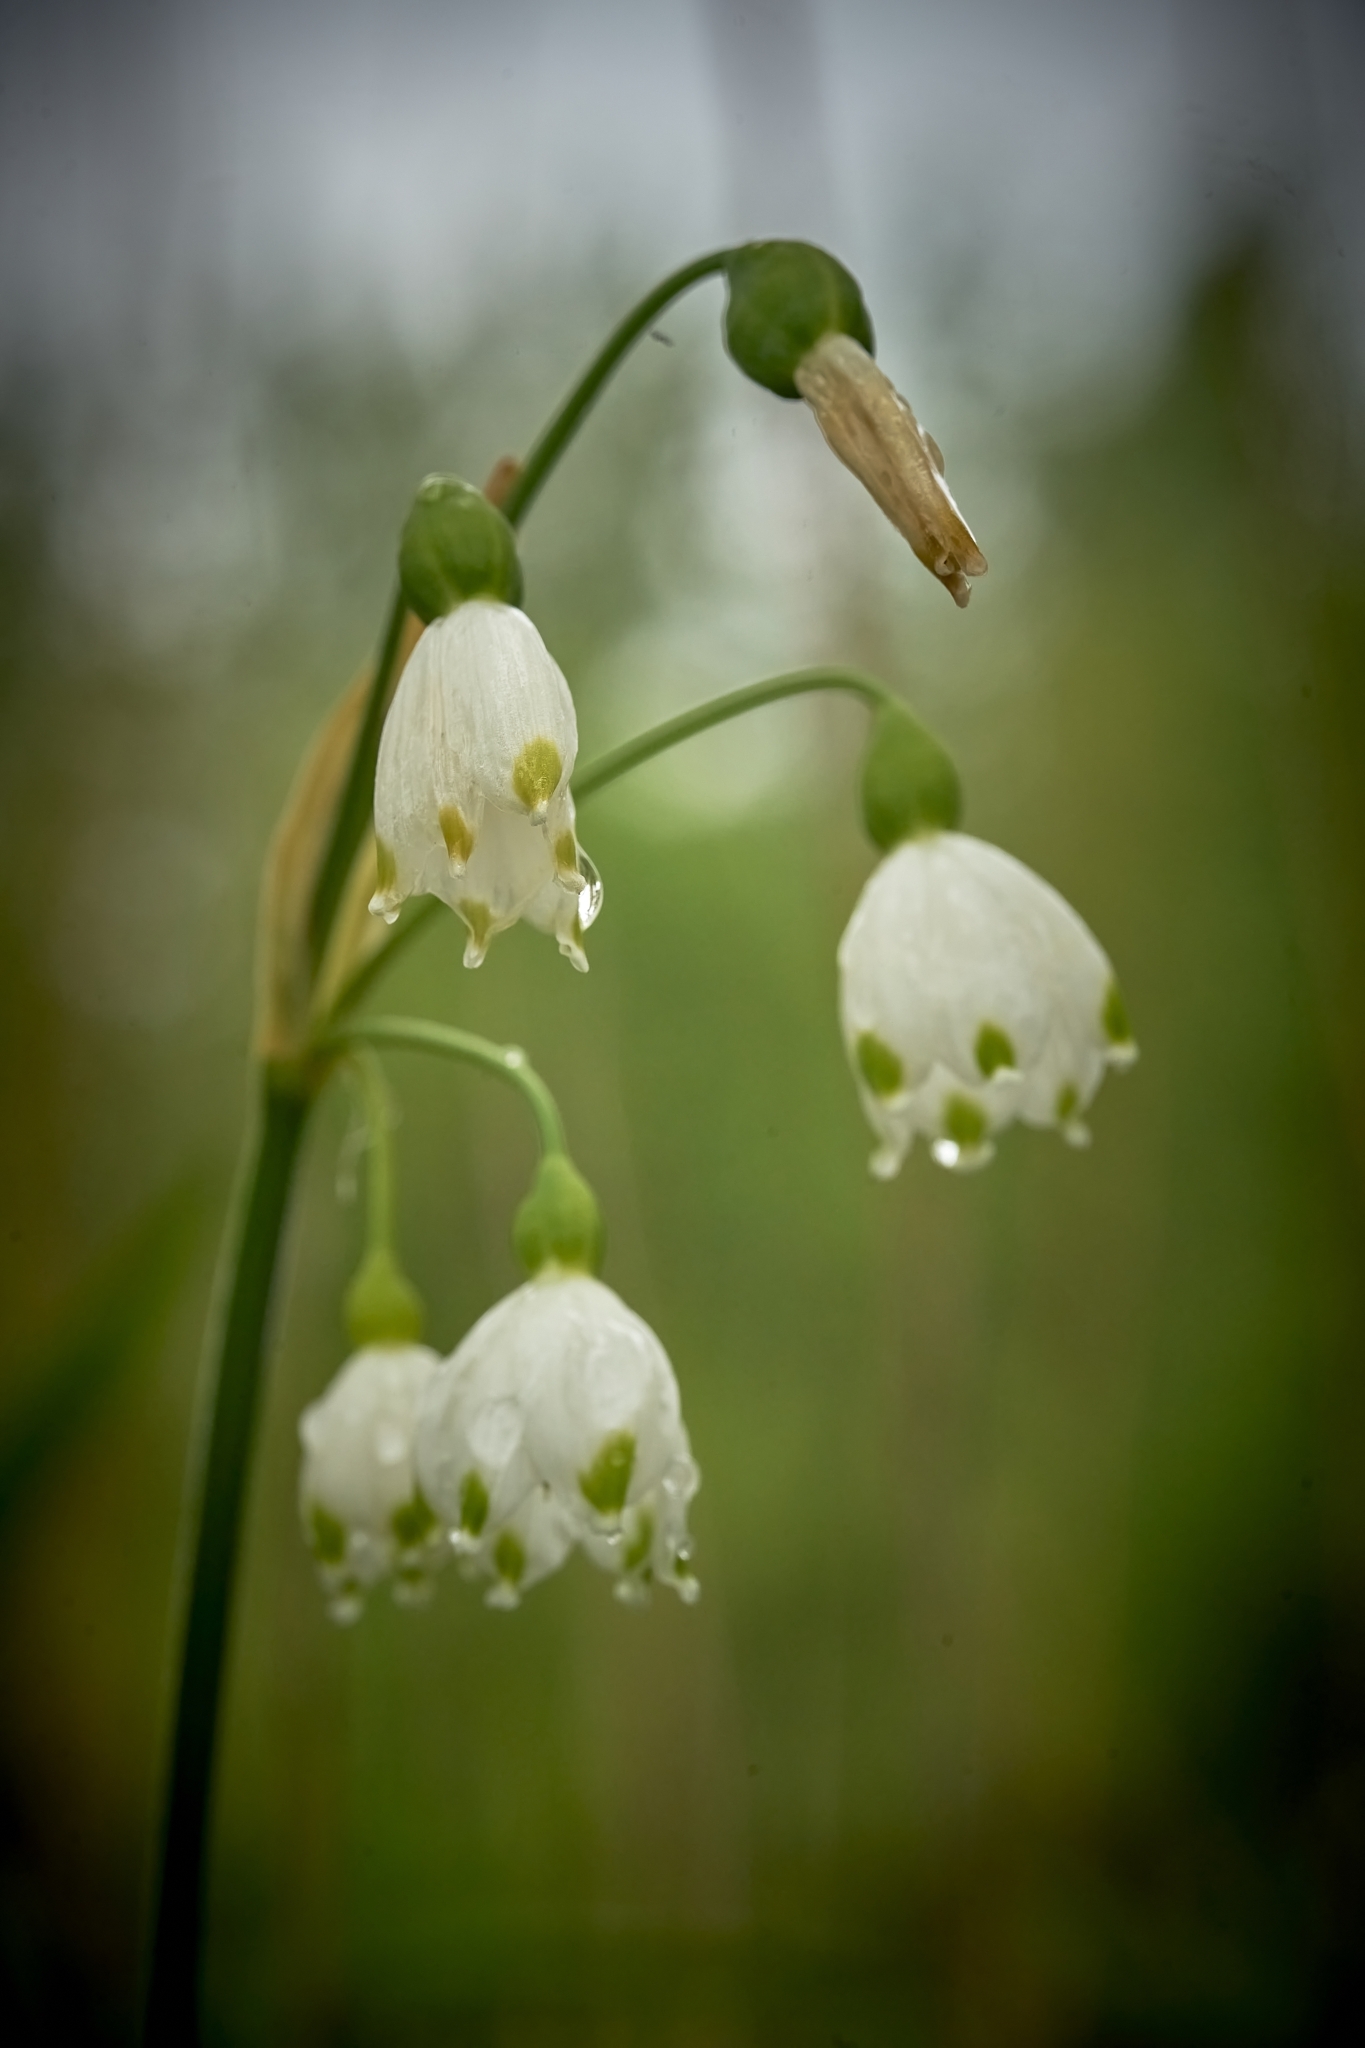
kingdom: Plantae
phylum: Tracheophyta
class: Liliopsida
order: Asparagales
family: Amaryllidaceae
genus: Leucojum
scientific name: Leucojum aestivum
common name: Summer snowflake
